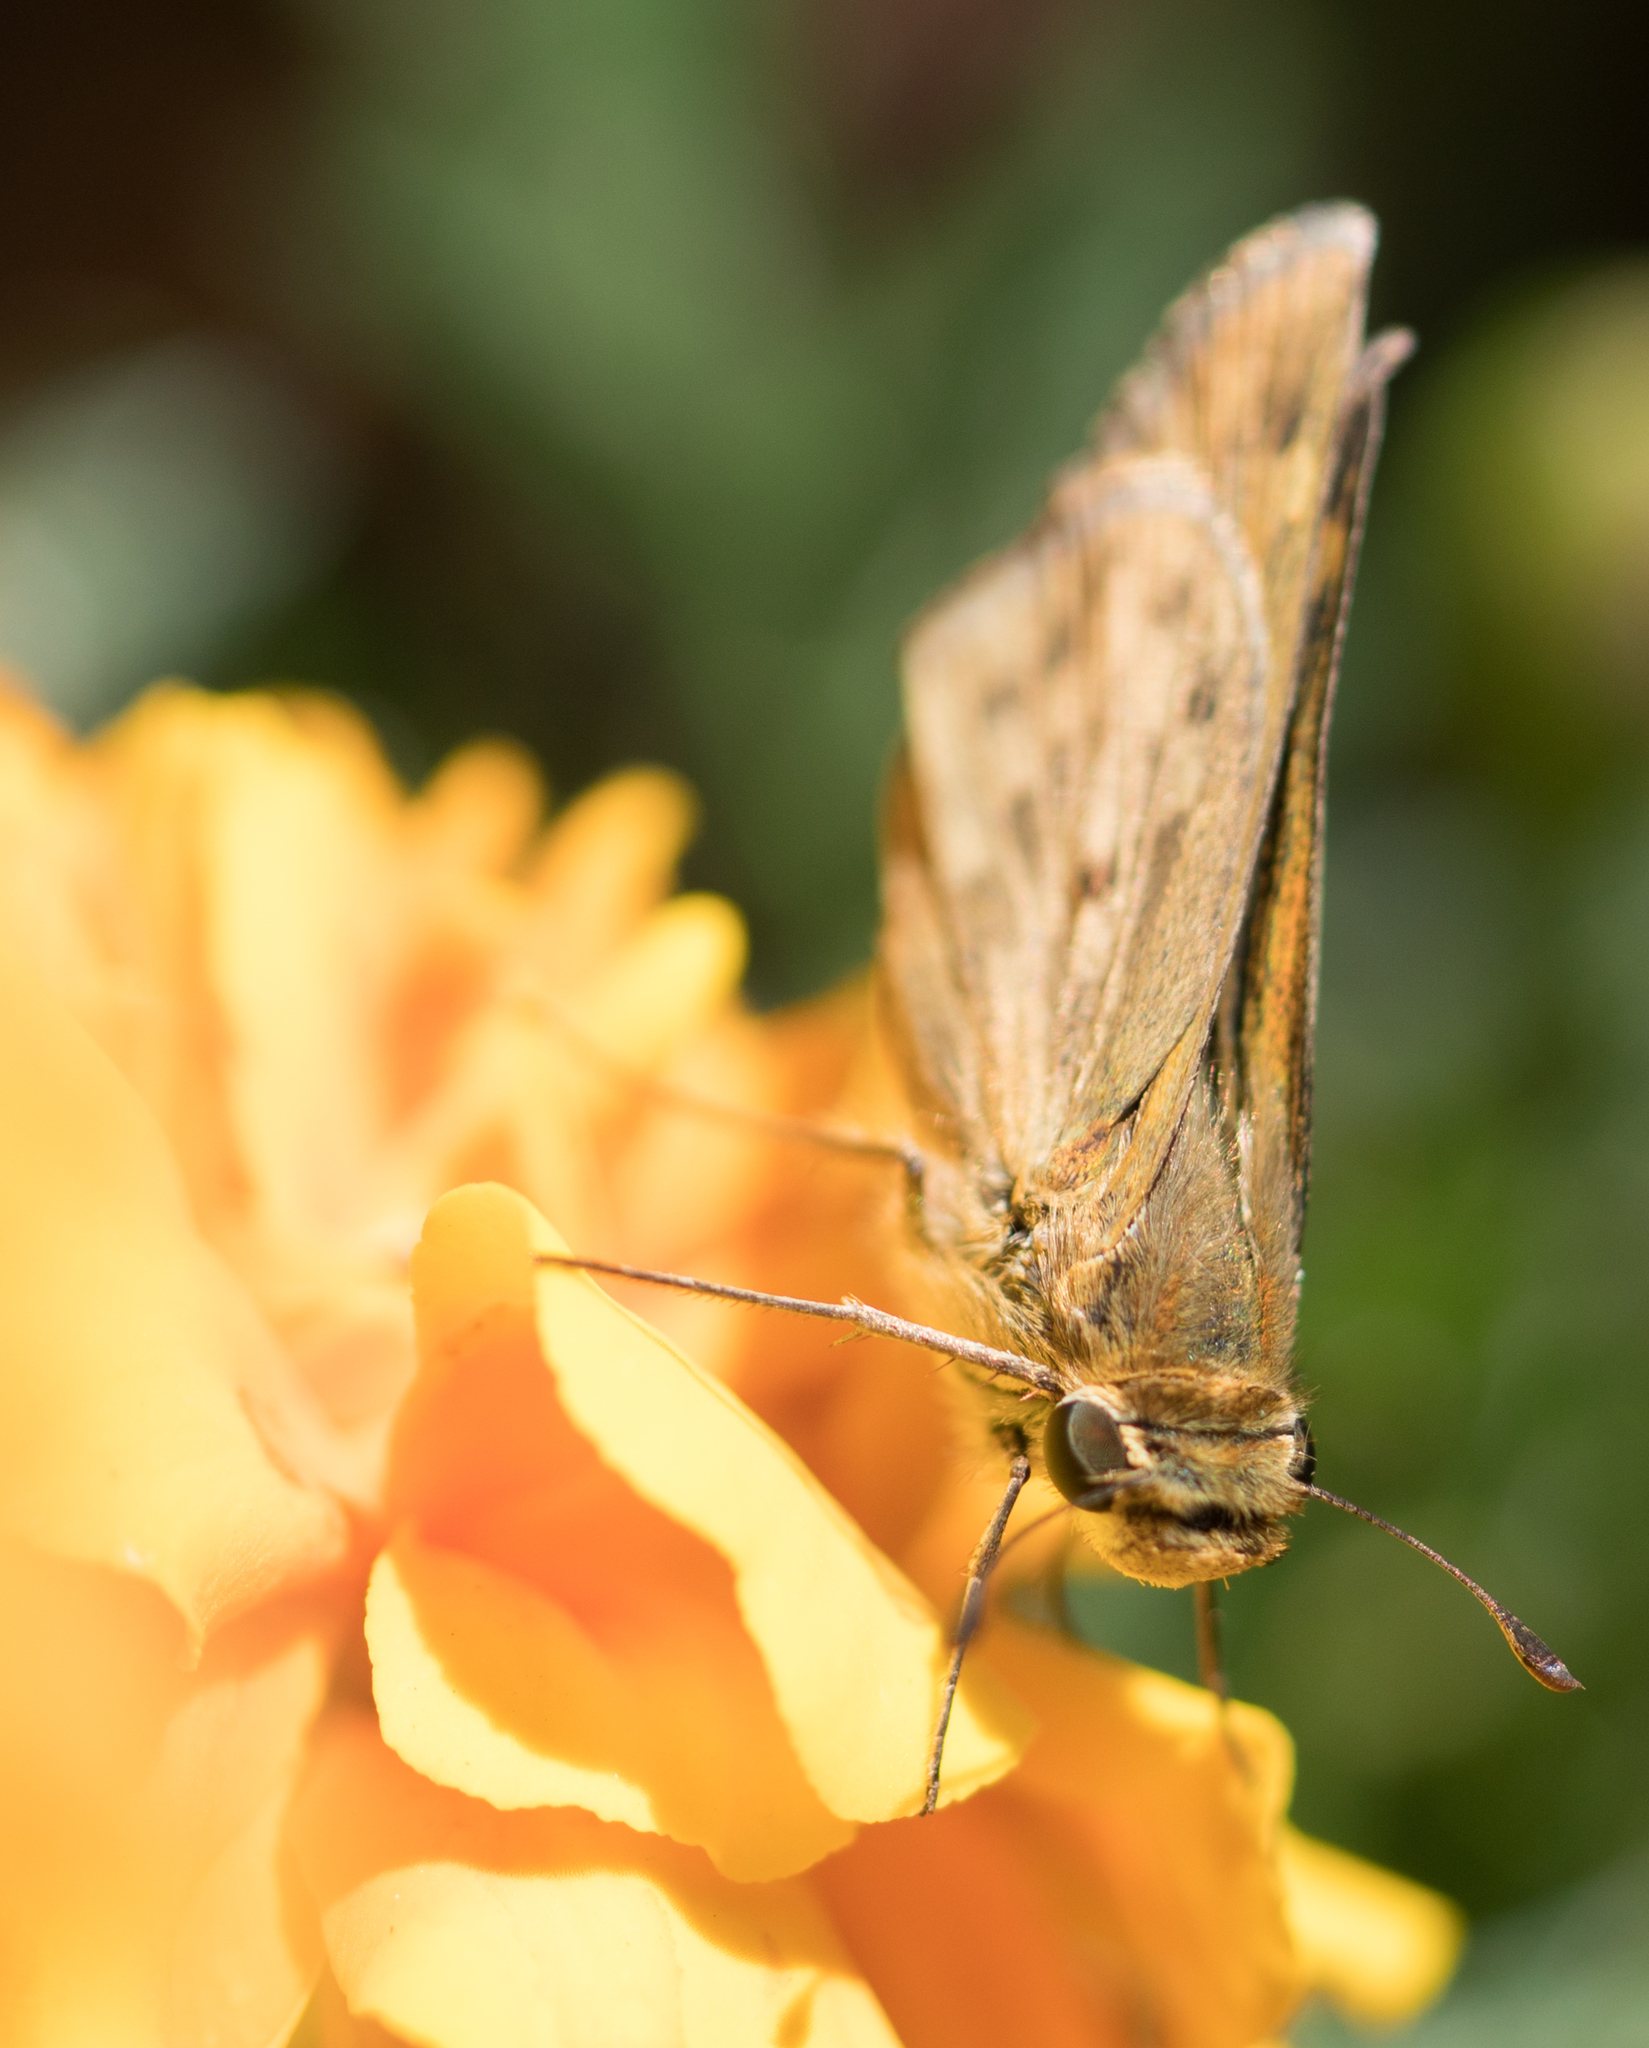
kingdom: Animalia
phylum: Arthropoda
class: Insecta
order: Lepidoptera
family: Hesperiidae
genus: Hylephila
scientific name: Hylephila phyleus
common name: Fiery skipper
